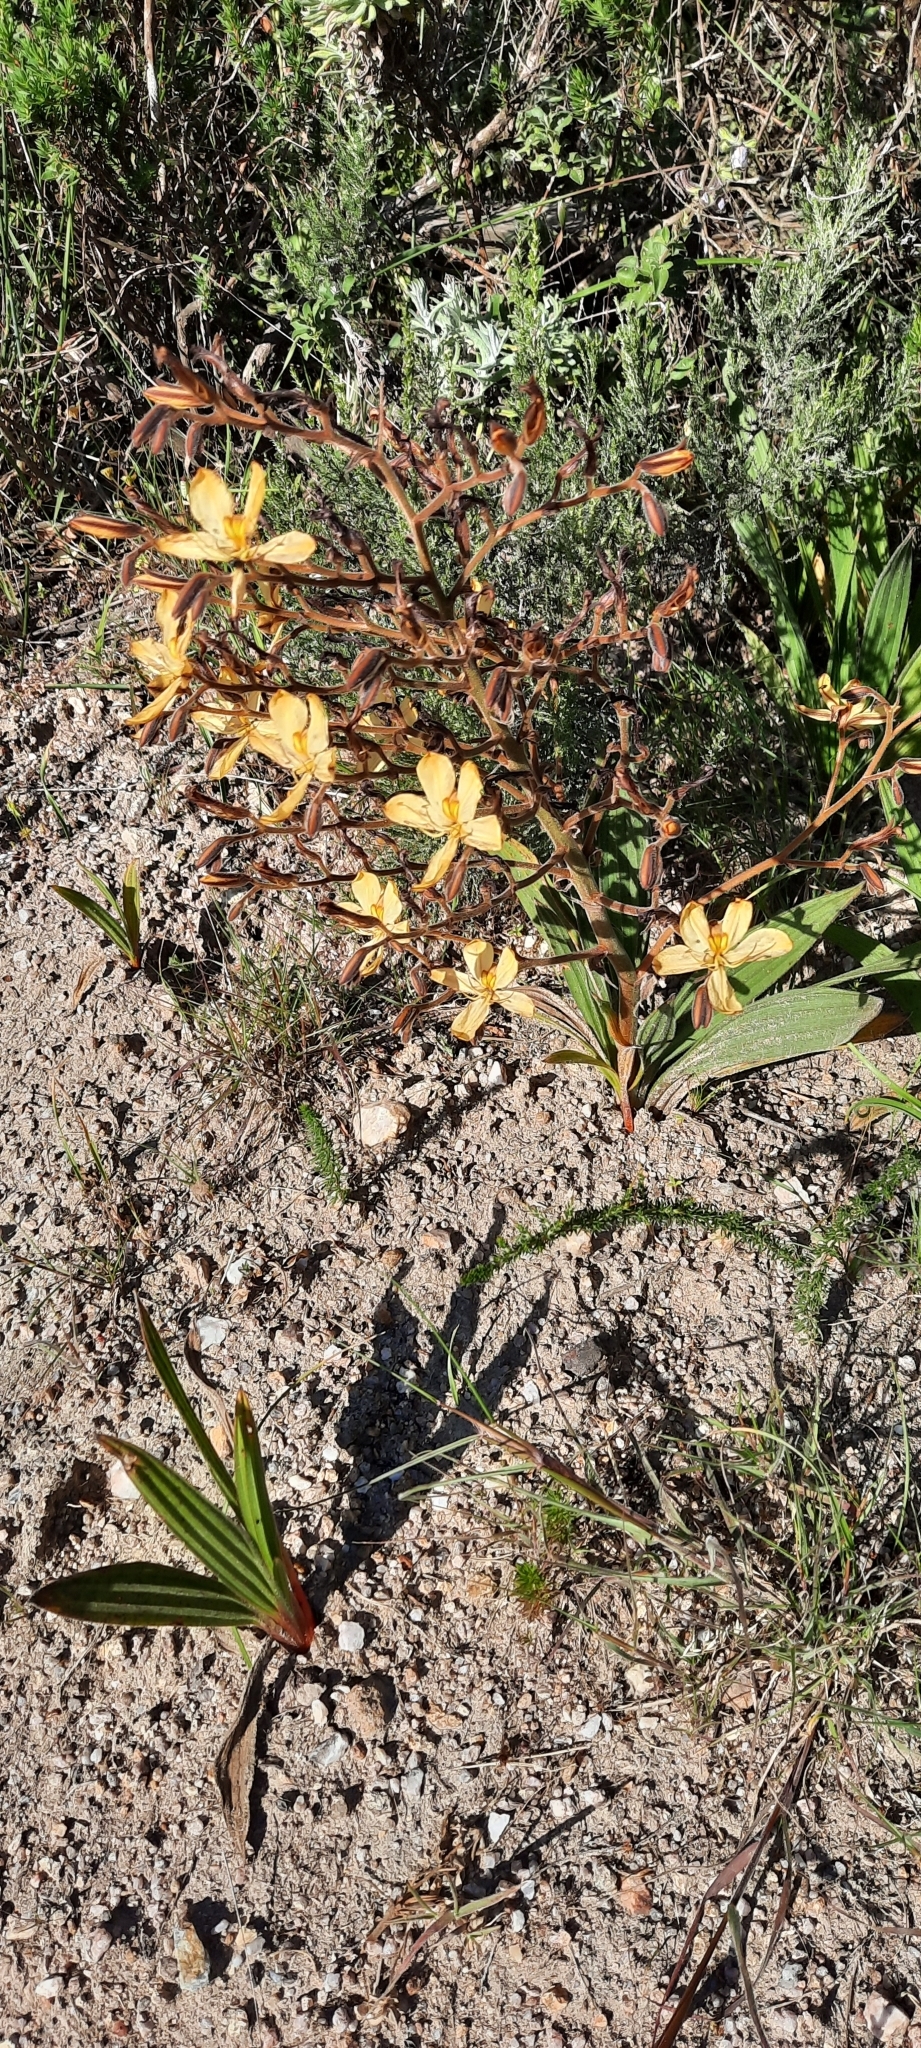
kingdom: Plantae
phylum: Tracheophyta
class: Liliopsida
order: Commelinales
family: Haemodoraceae
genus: Wachendorfia
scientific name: Wachendorfia paniculata
